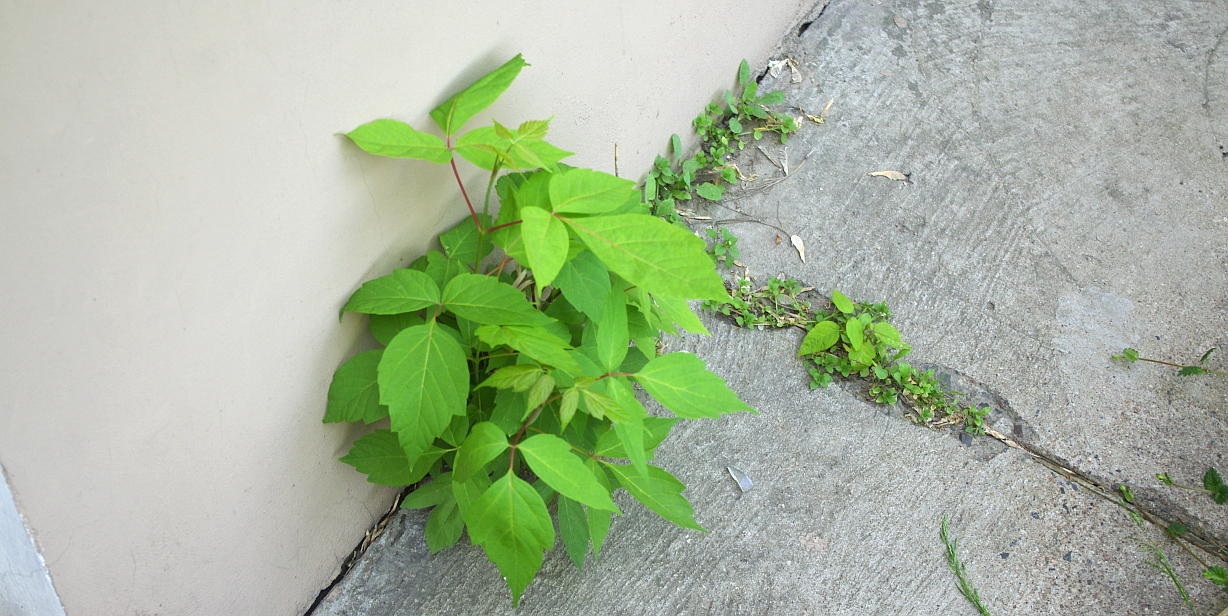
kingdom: Plantae
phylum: Tracheophyta
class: Magnoliopsida
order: Sapindales
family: Sapindaceae
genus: Acer
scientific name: Acer negundo
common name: Ashleaf maple
